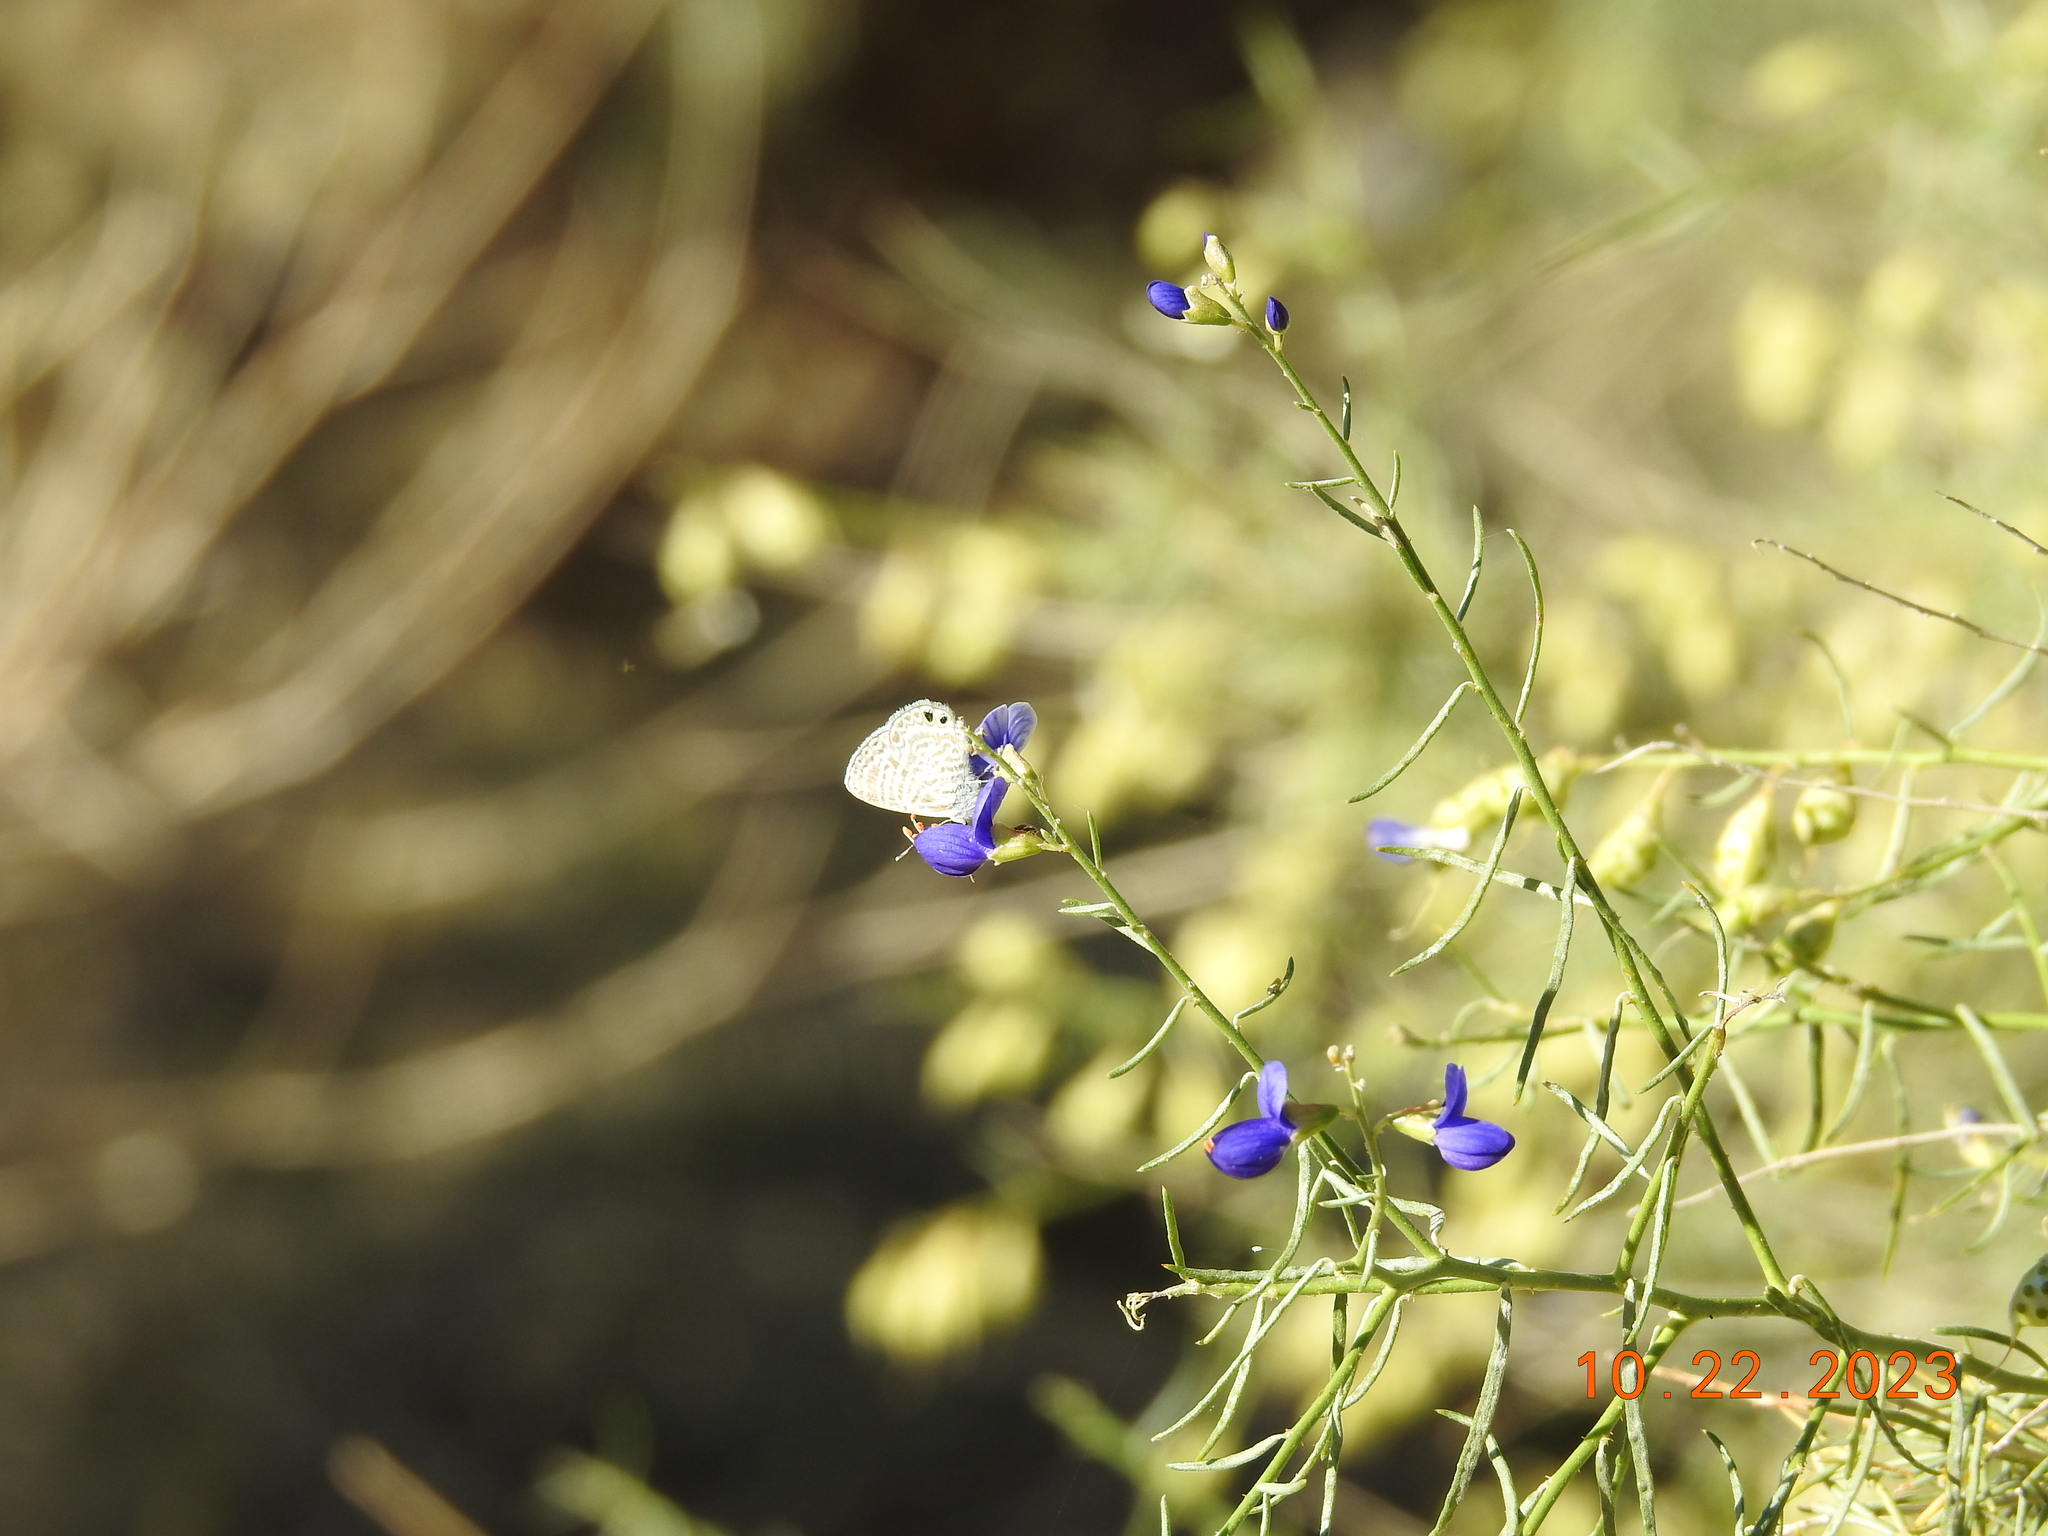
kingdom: Animalia
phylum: Arthropoda
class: Insecta
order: Lepidoptera
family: Lycaenidae
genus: Leptotes
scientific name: Leptotes marina
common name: Marine blue
